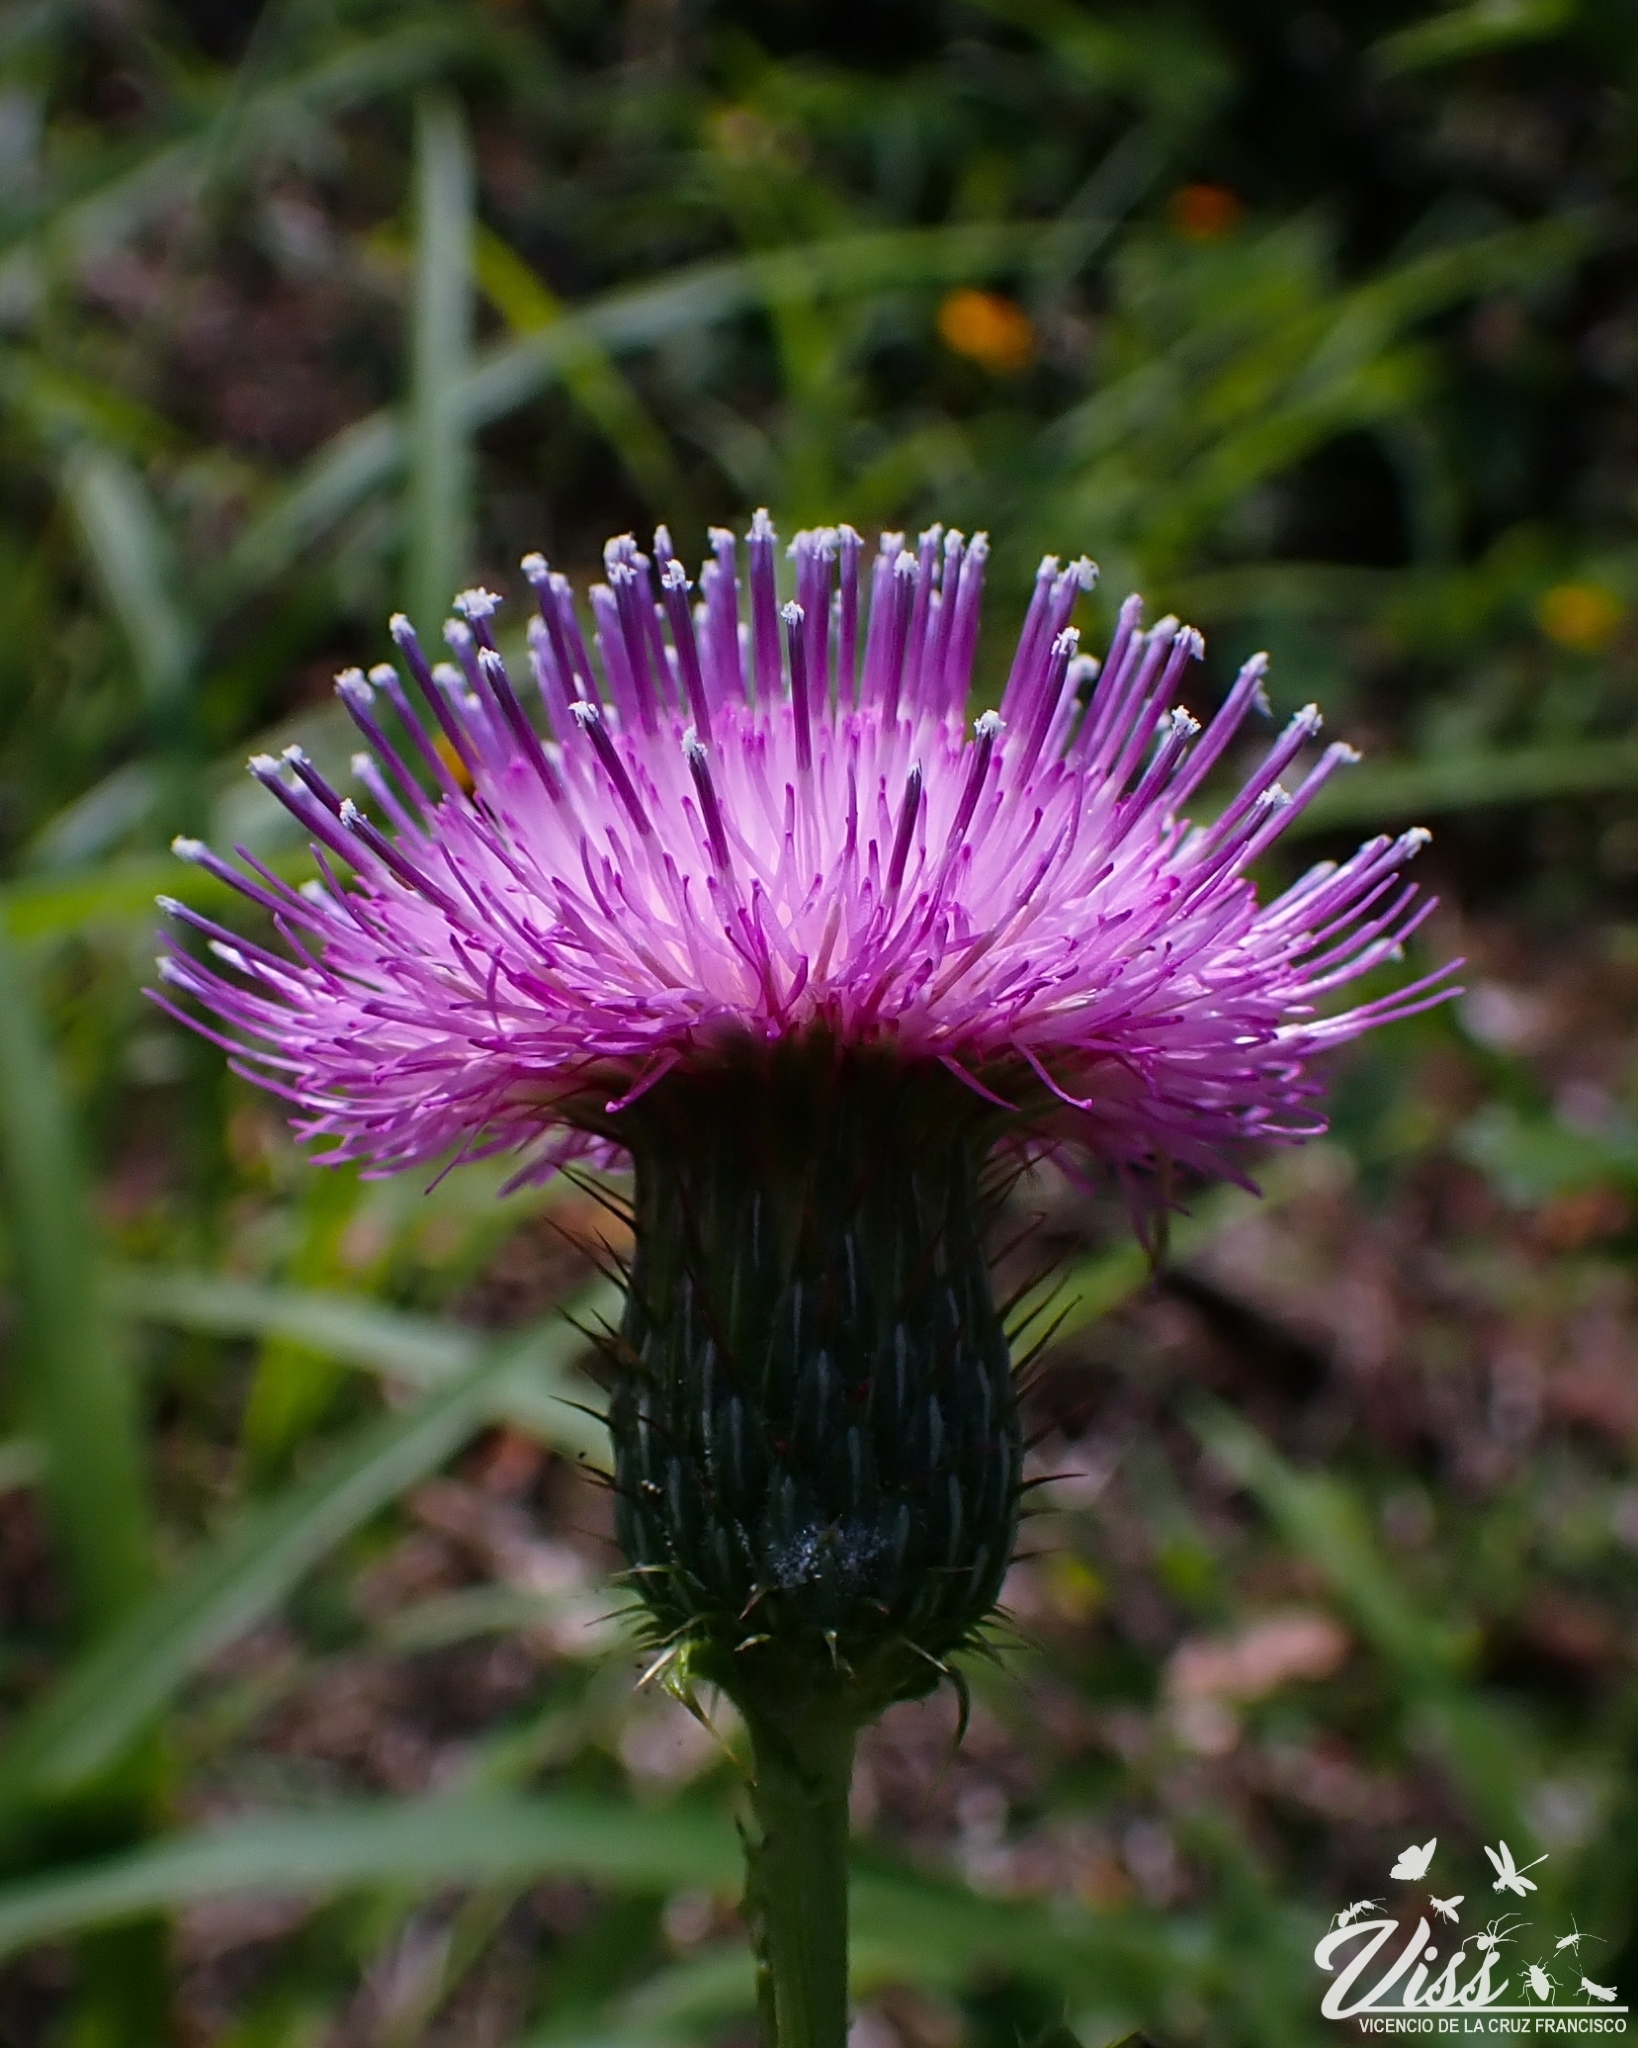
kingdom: Plantae
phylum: Tracheophyta
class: Magnoliopsida
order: Asterales
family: Asteraceae
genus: Cirsium
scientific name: Cirsium mexicanum
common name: Mexican thistle
